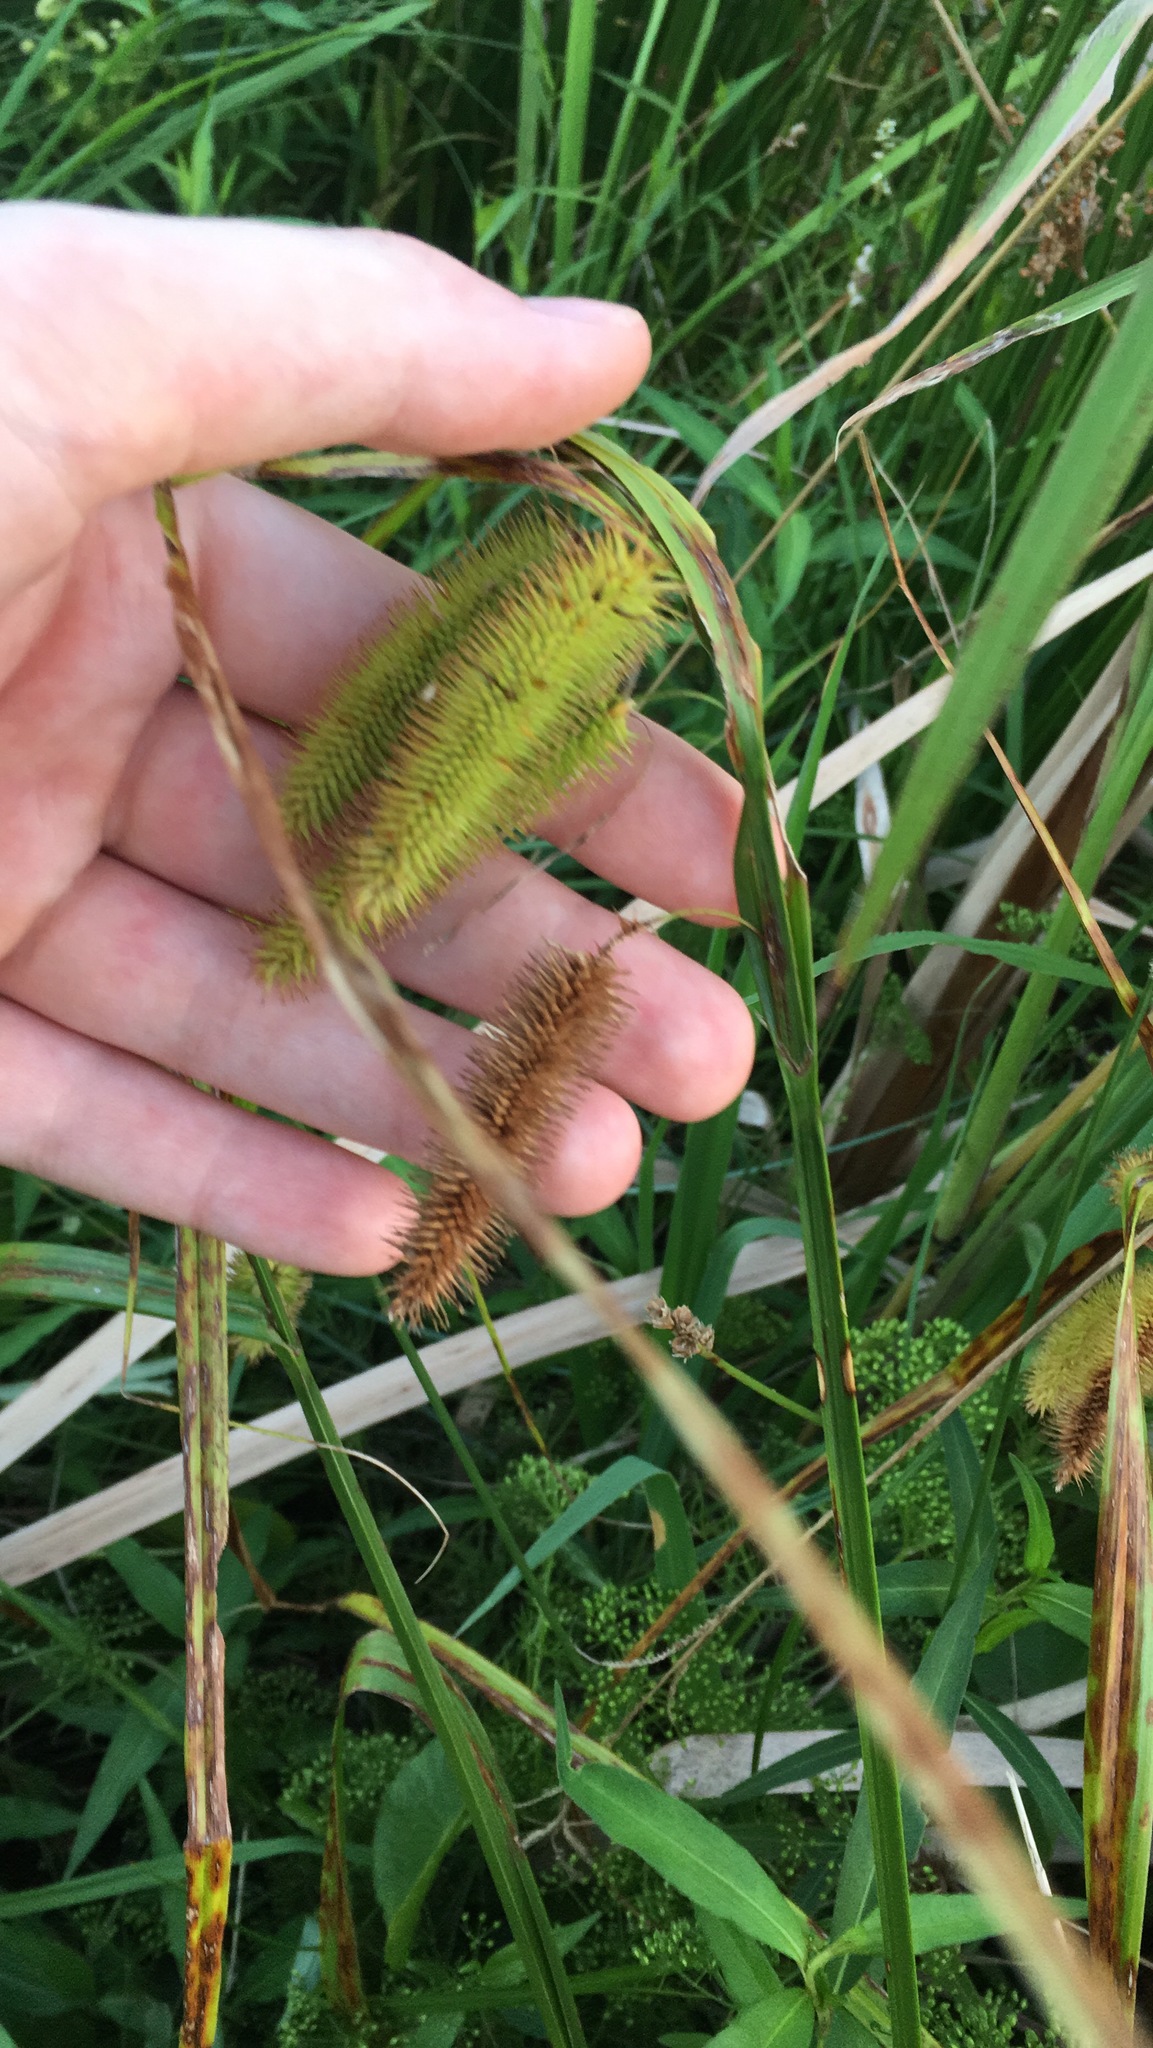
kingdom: Plantae
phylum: Tracheophyta
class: Liliopsida
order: Poales
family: Cyperaceae
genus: Carex
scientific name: Carex comosa
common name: Bristly sedge
